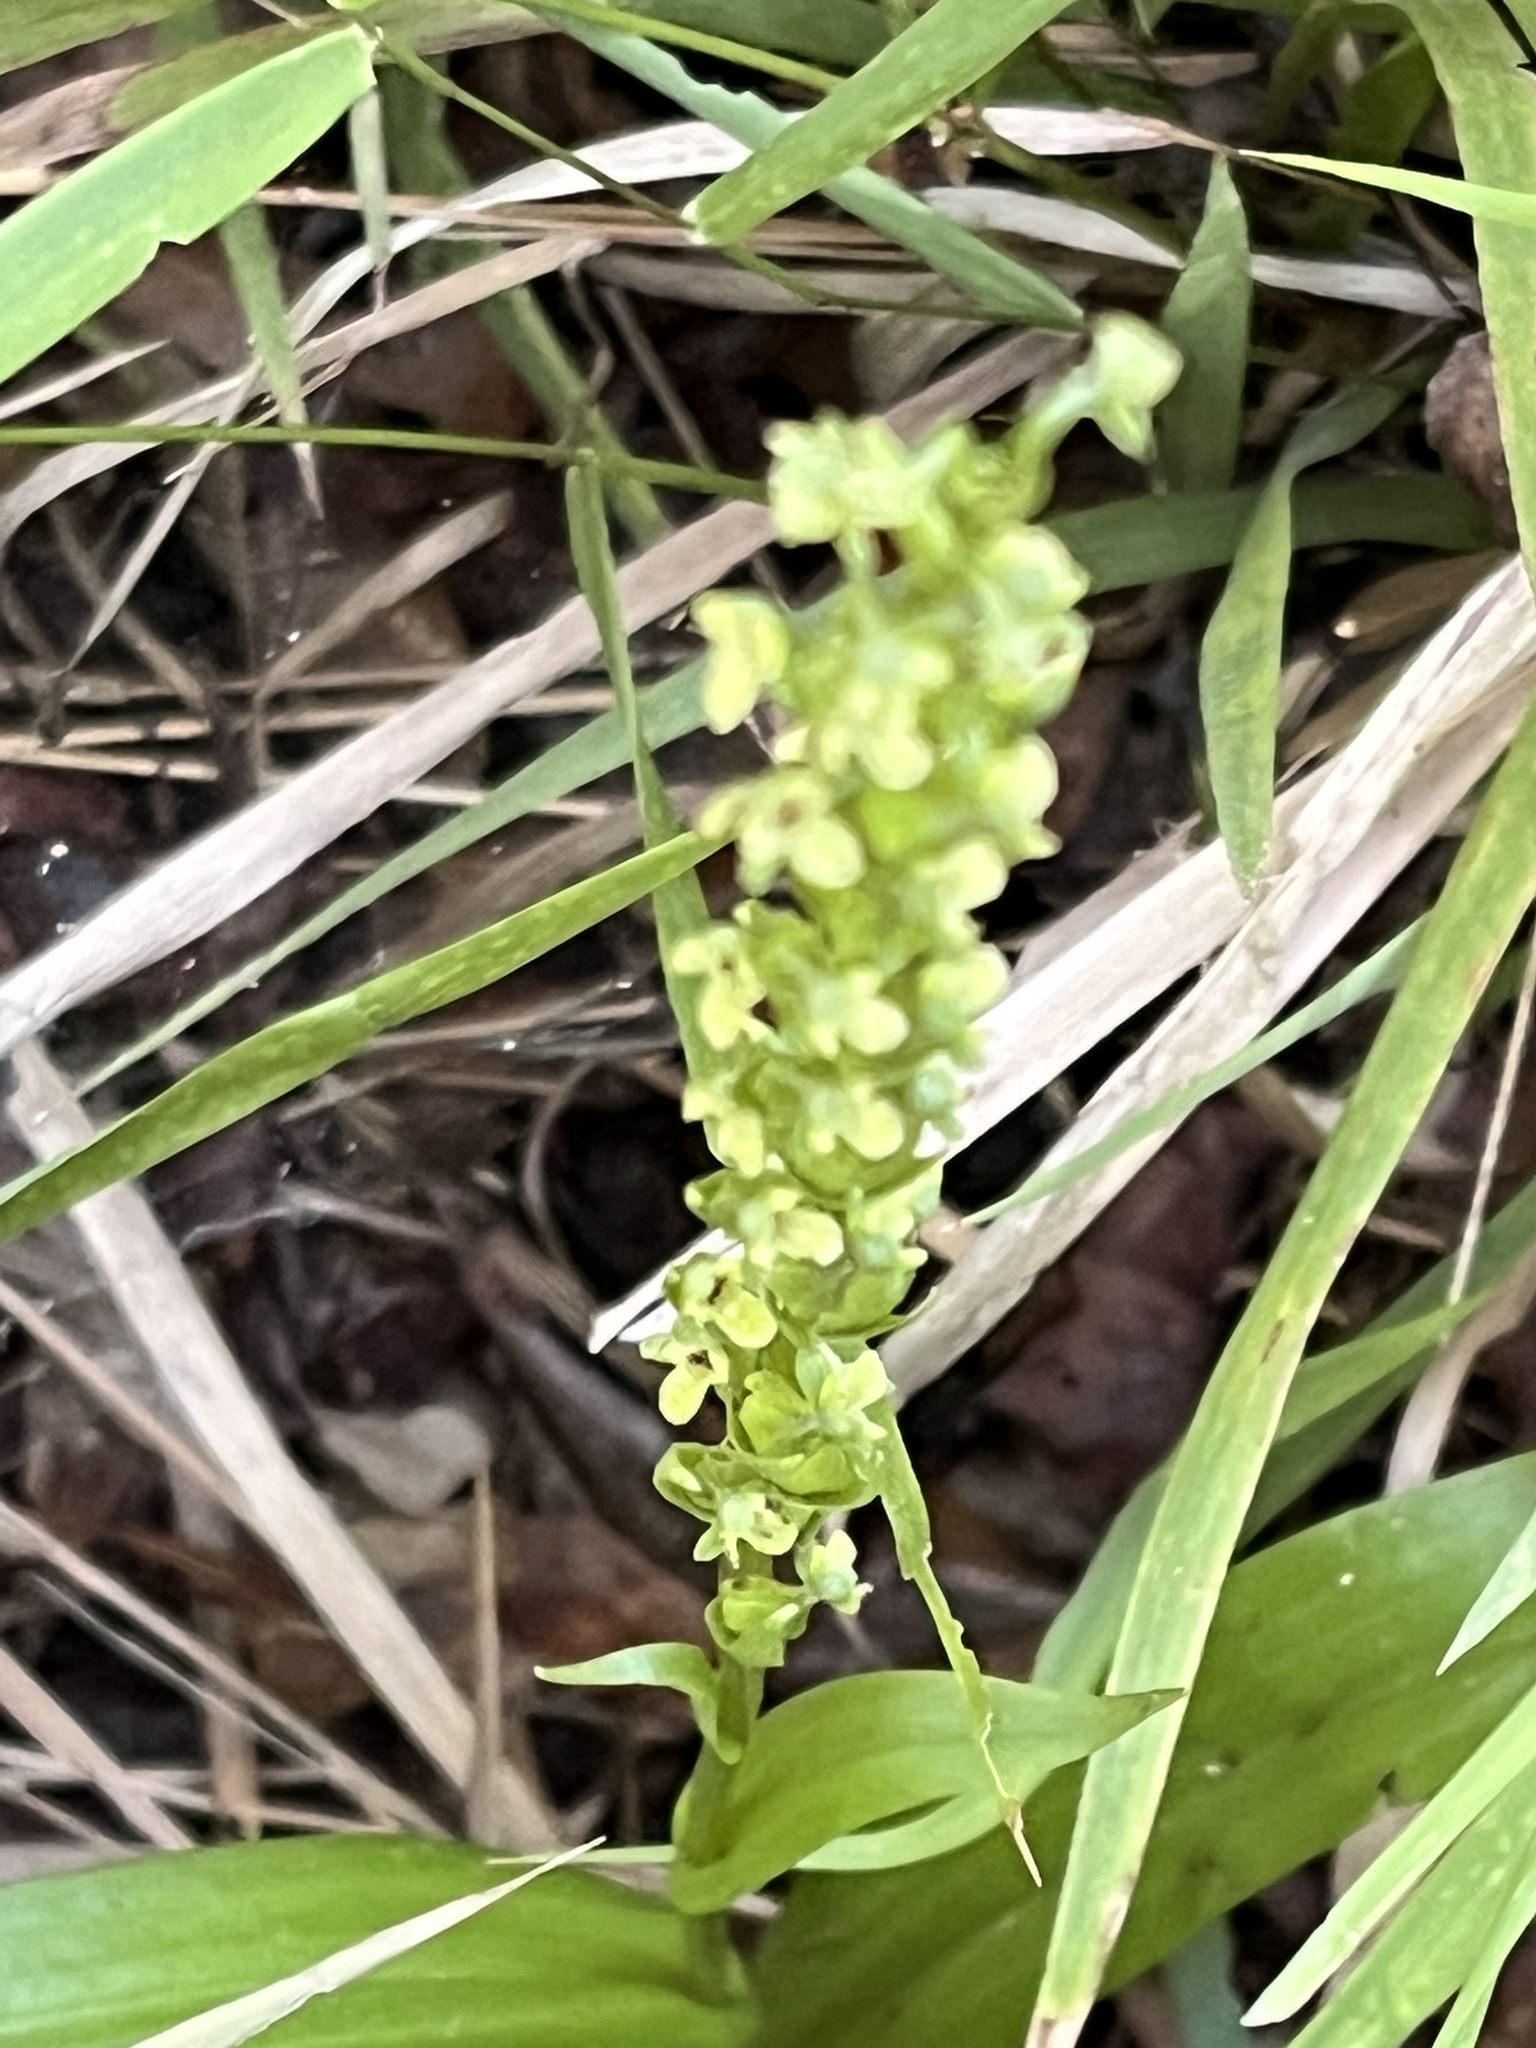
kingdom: Plantae
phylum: Tracheophyta
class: Liliopsida
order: Asparagales
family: Orchidaceae
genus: Platanthera
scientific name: Platanthera flava
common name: Gypsy-spikes
